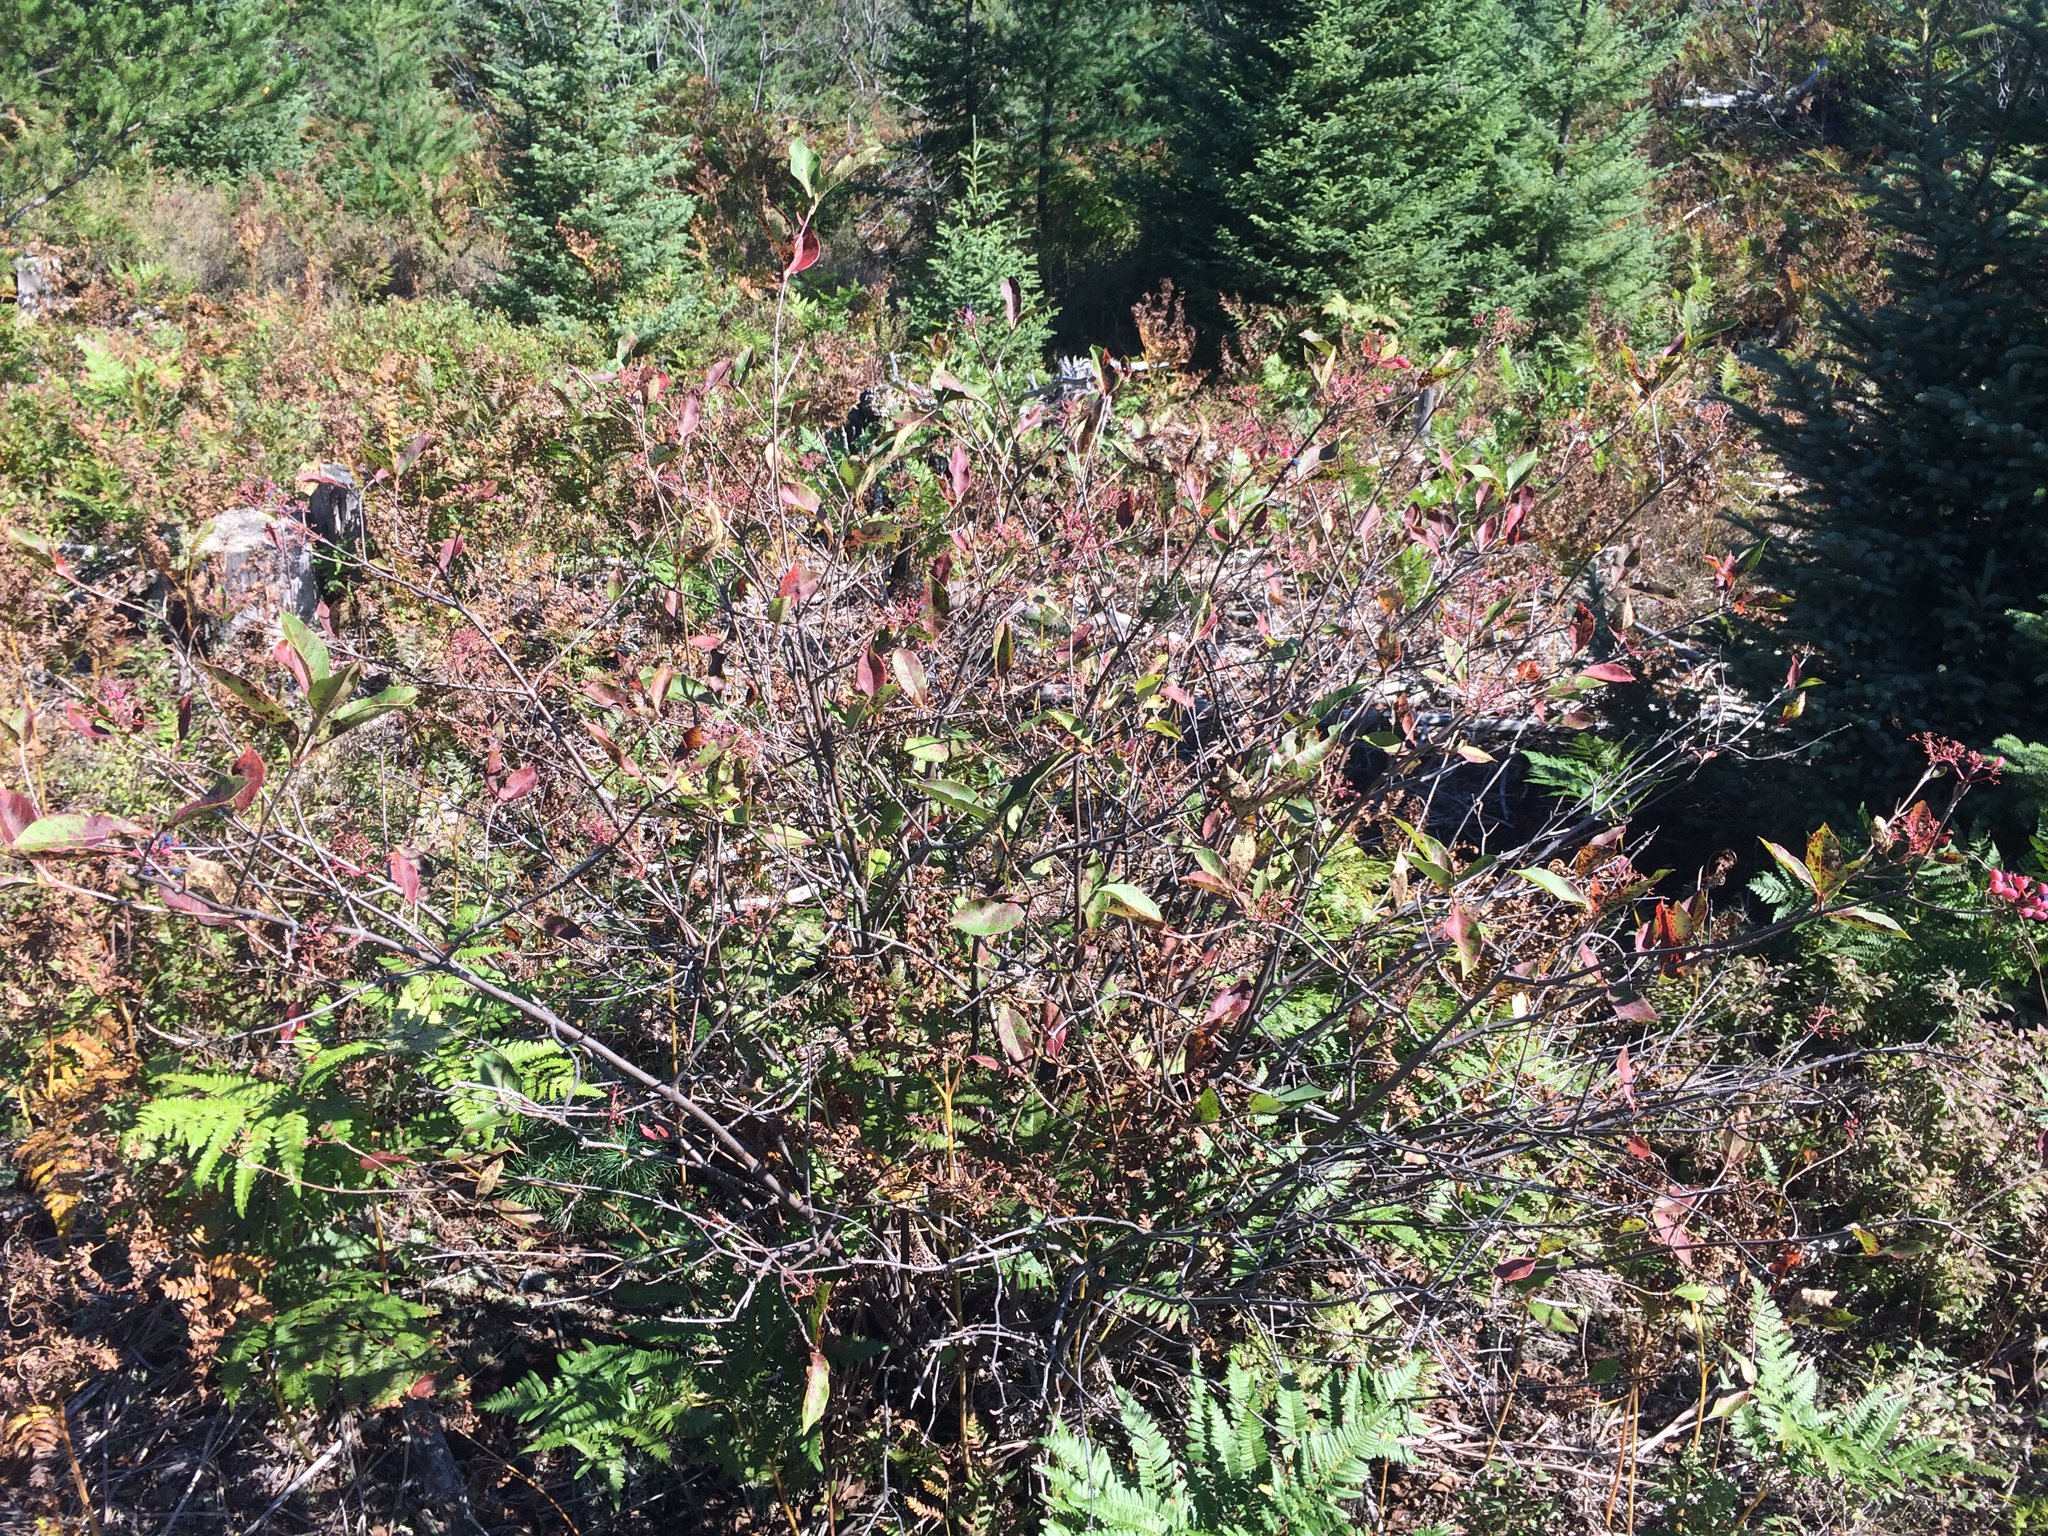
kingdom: Plantae
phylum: Tracheophyta
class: Magnoliopsida
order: Dipsacales
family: Viburnaceae
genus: Viburnum
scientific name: Viburnum cassinoides
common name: Swamp haw
